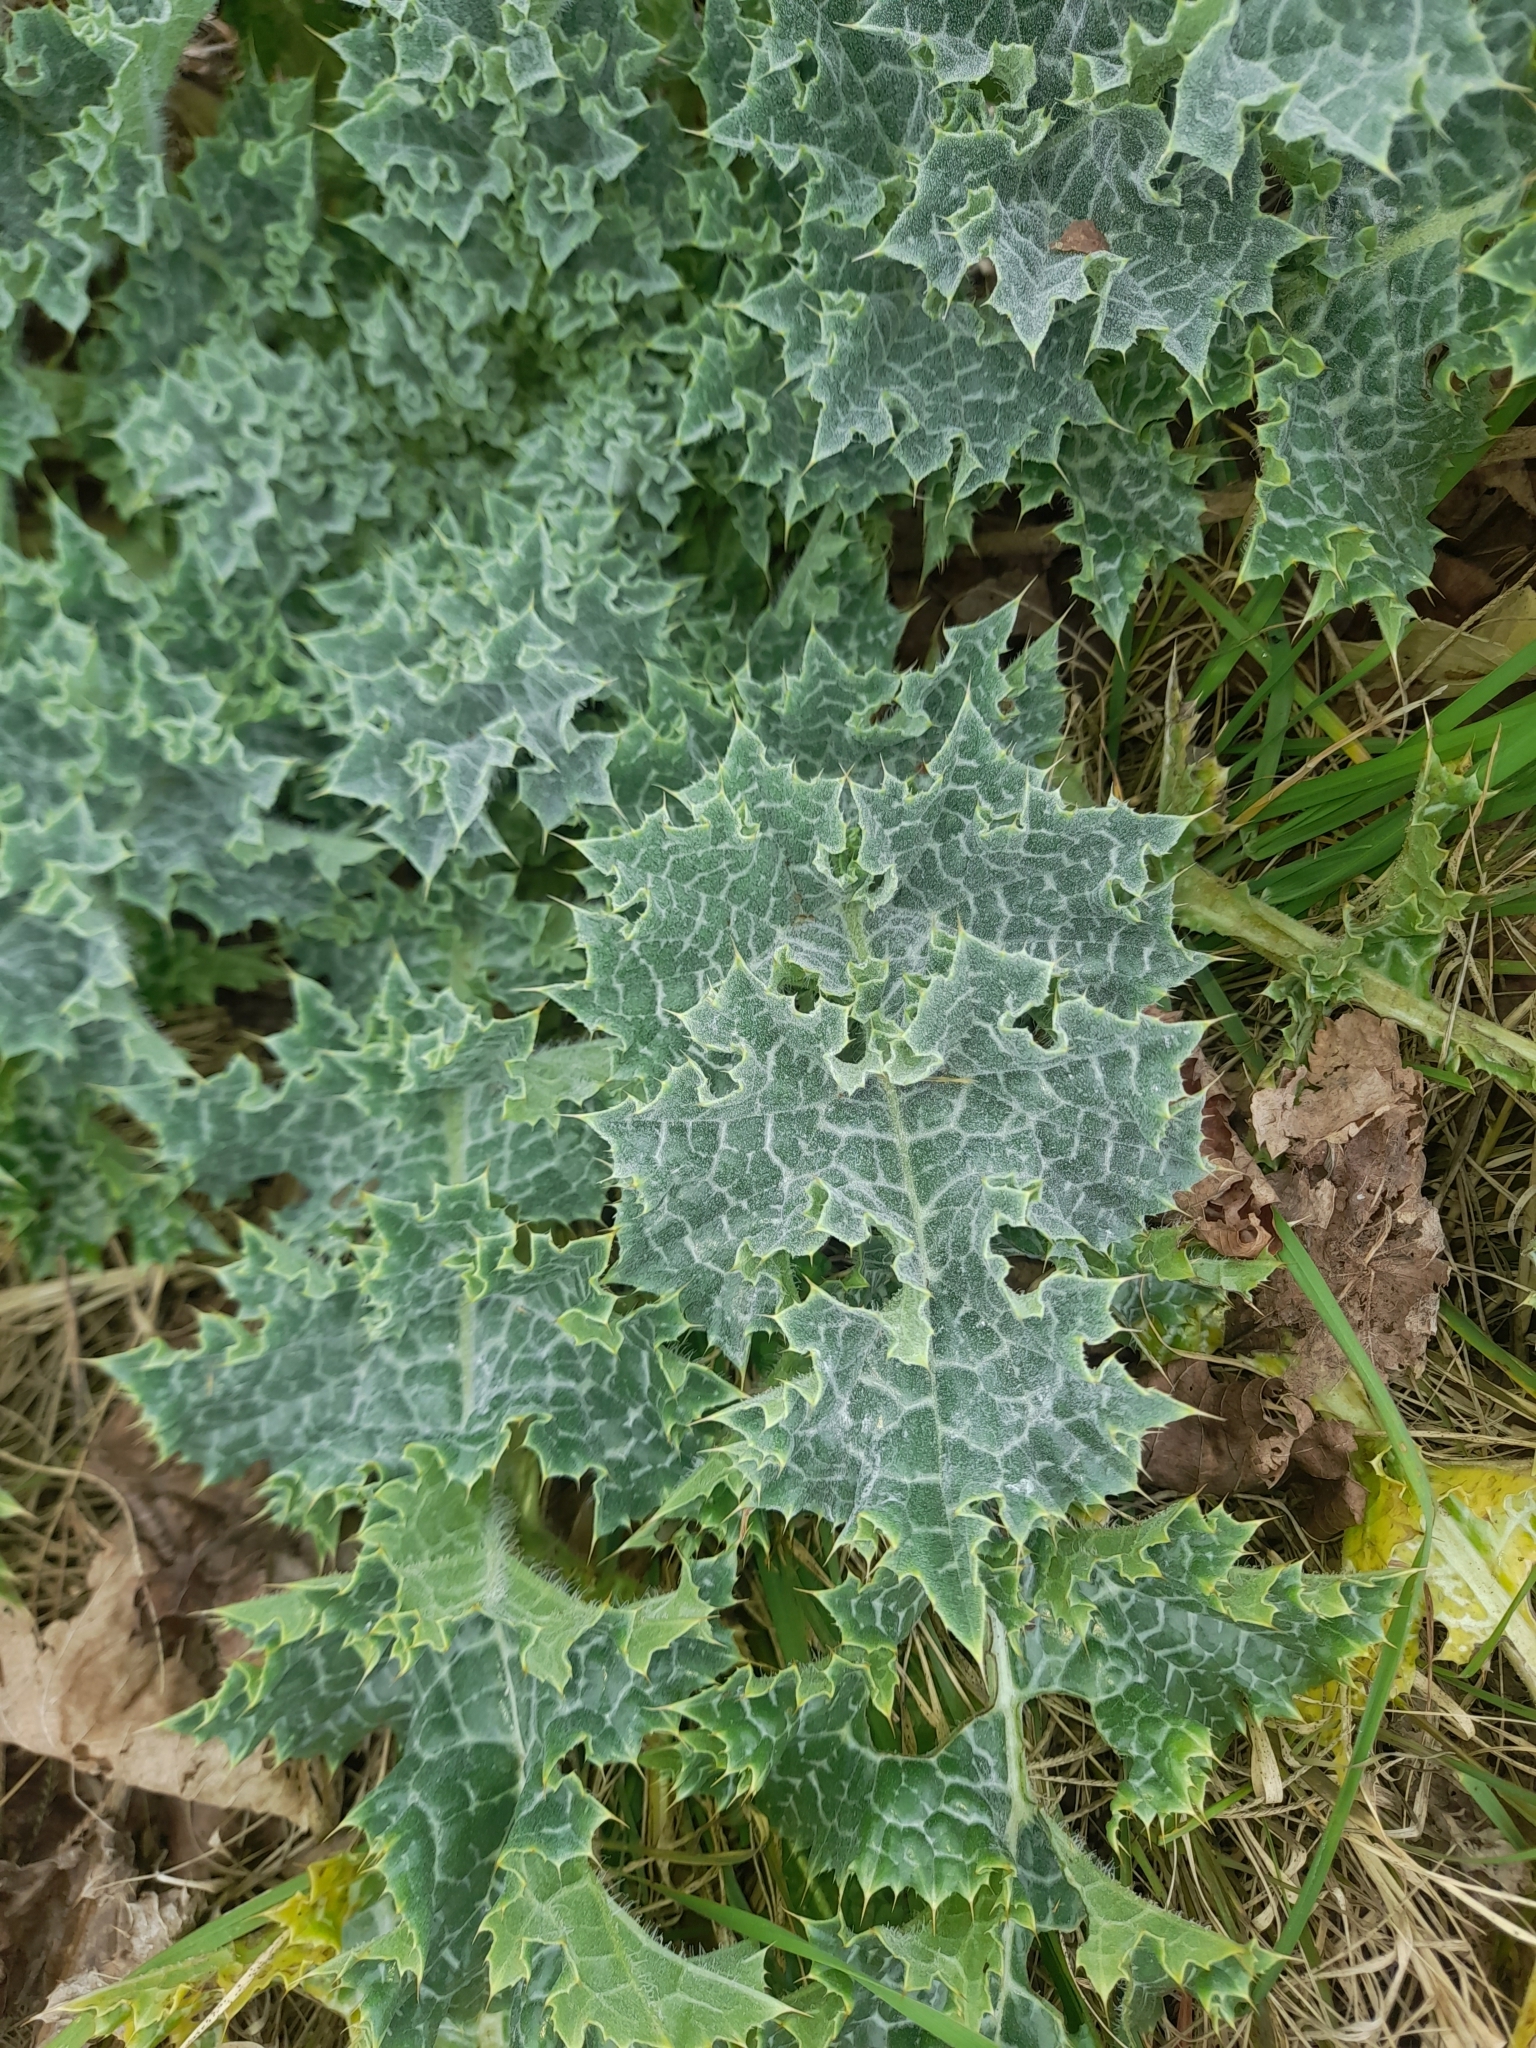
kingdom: Plantae
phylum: Tracheophyta
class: Magnoliopsida
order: Asterales
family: Asteraceae
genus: Silybum
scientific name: Silybum marianum
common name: Milk thistle
